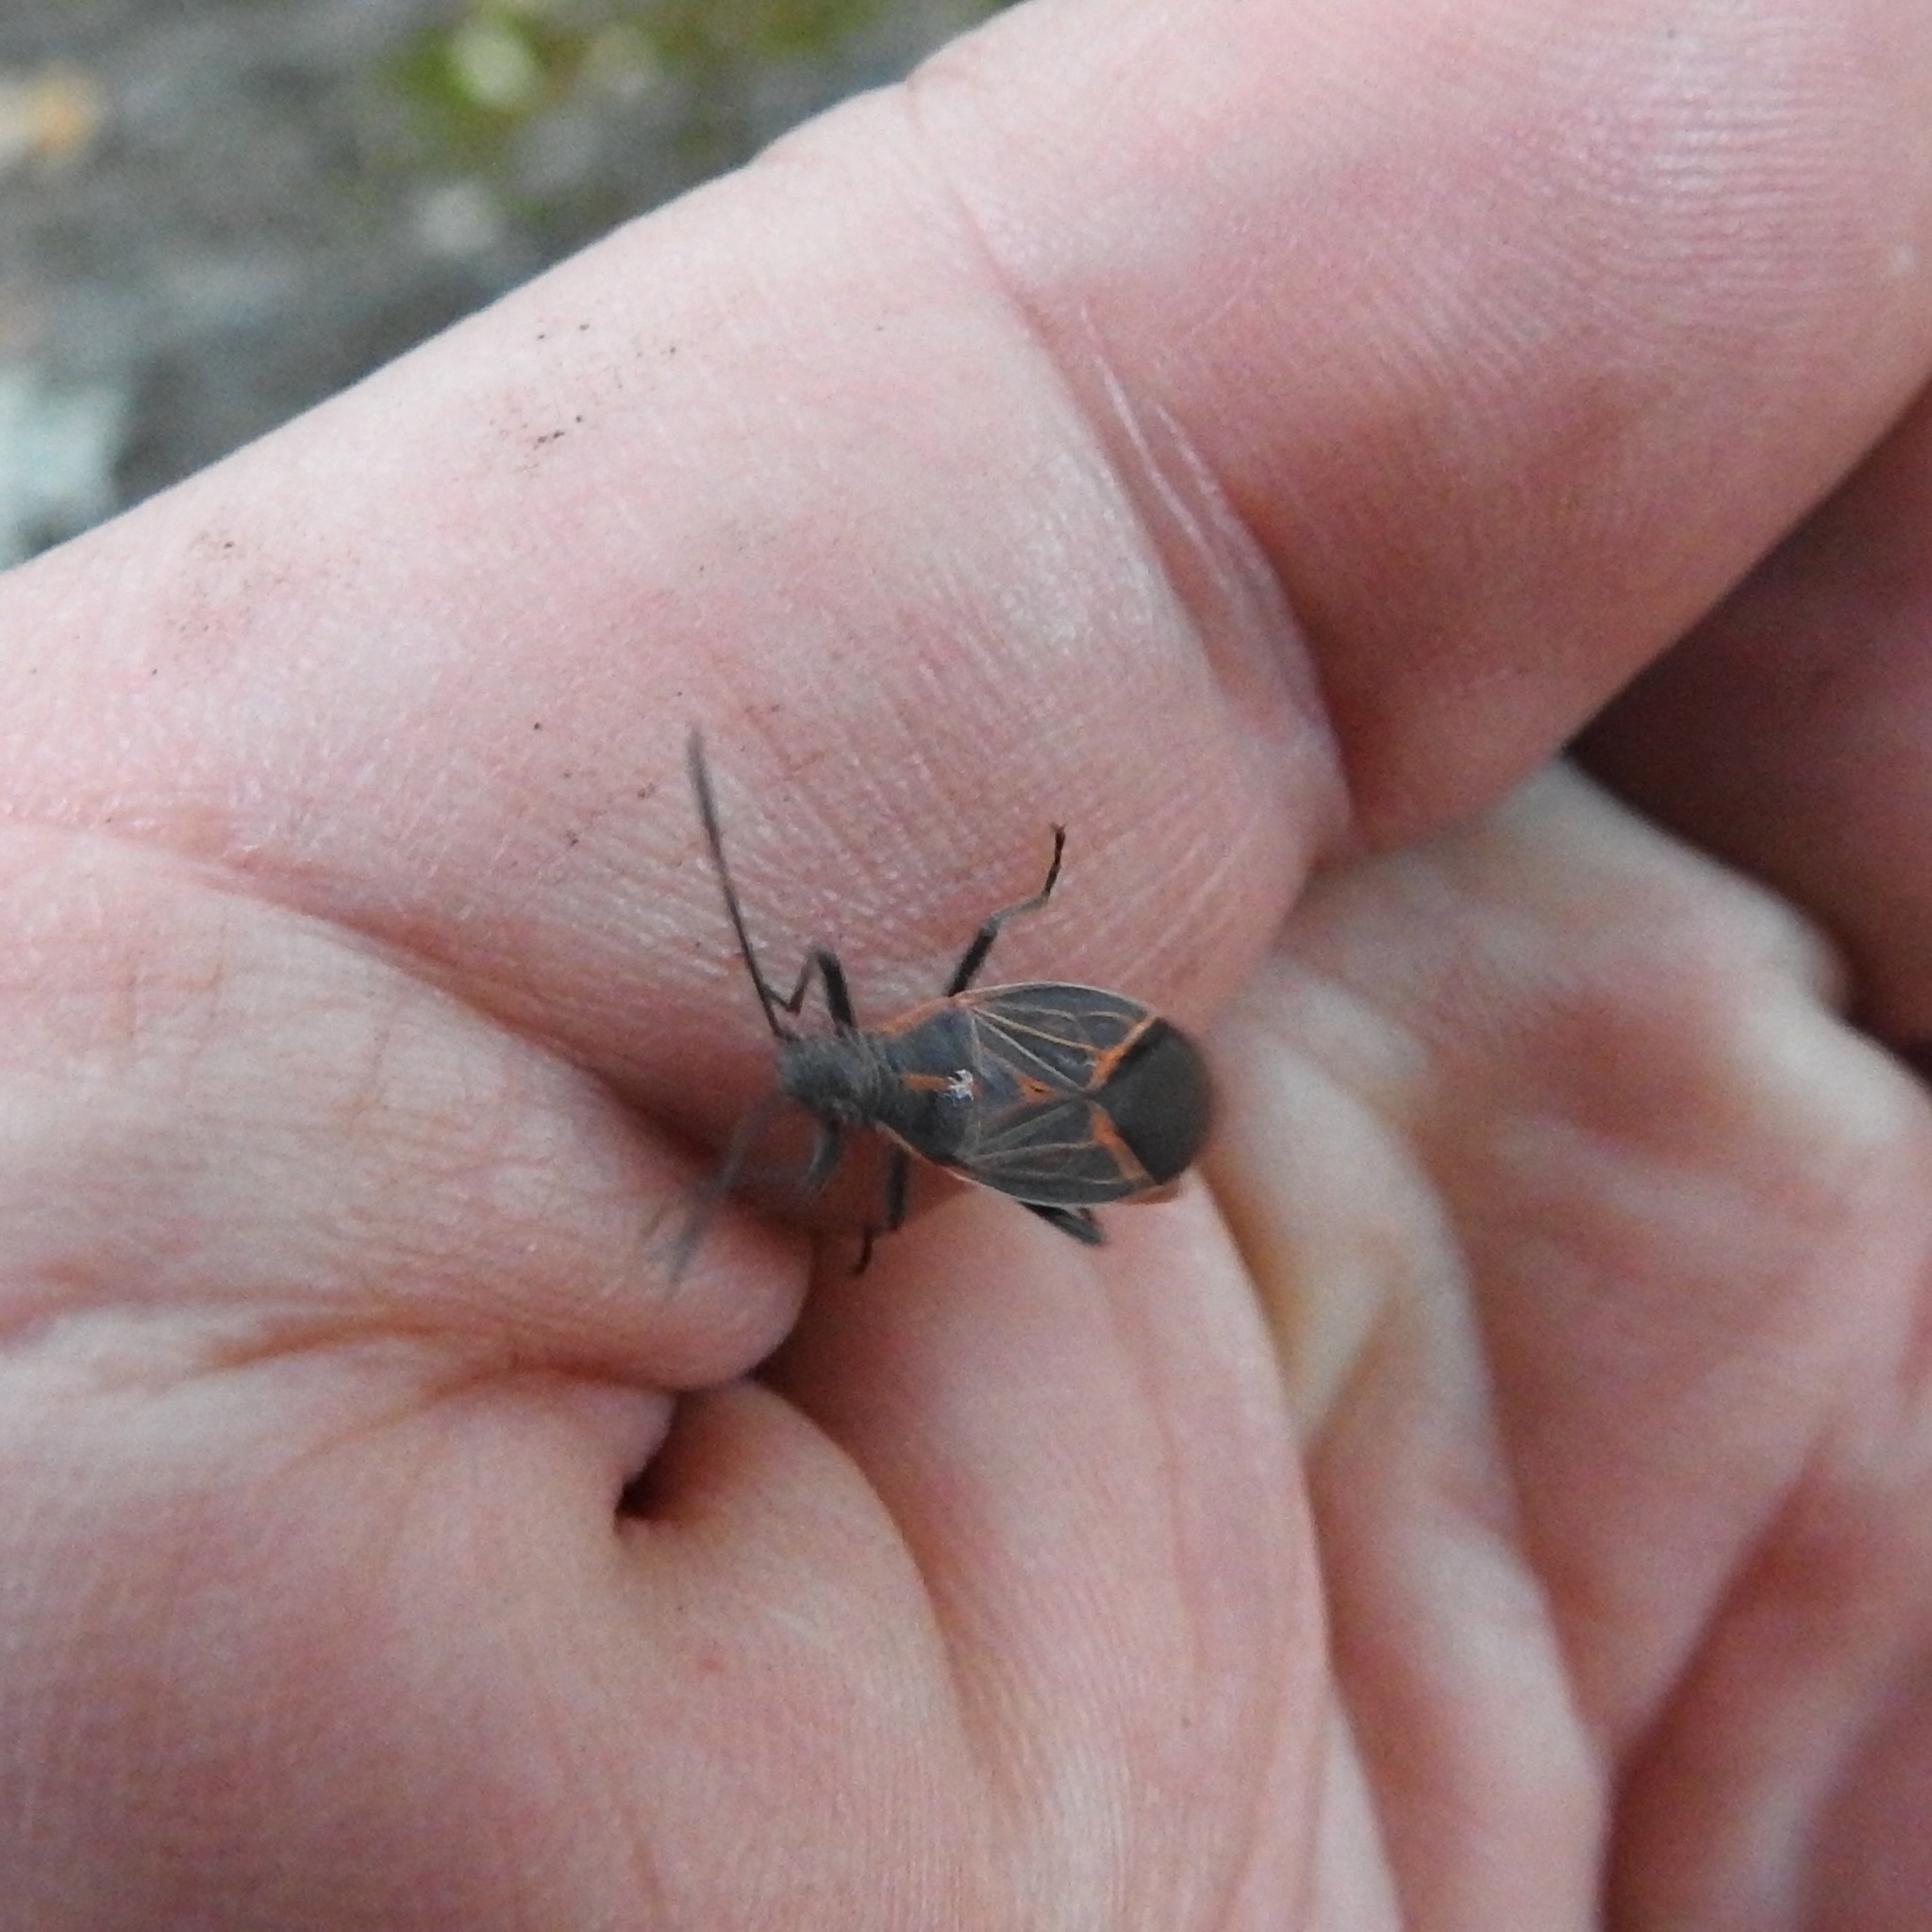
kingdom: Animalia
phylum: Arthropoda
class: Insecta
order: Hemiptera
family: Rhopalidae
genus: Boisea
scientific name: Boisea rubrolineata
